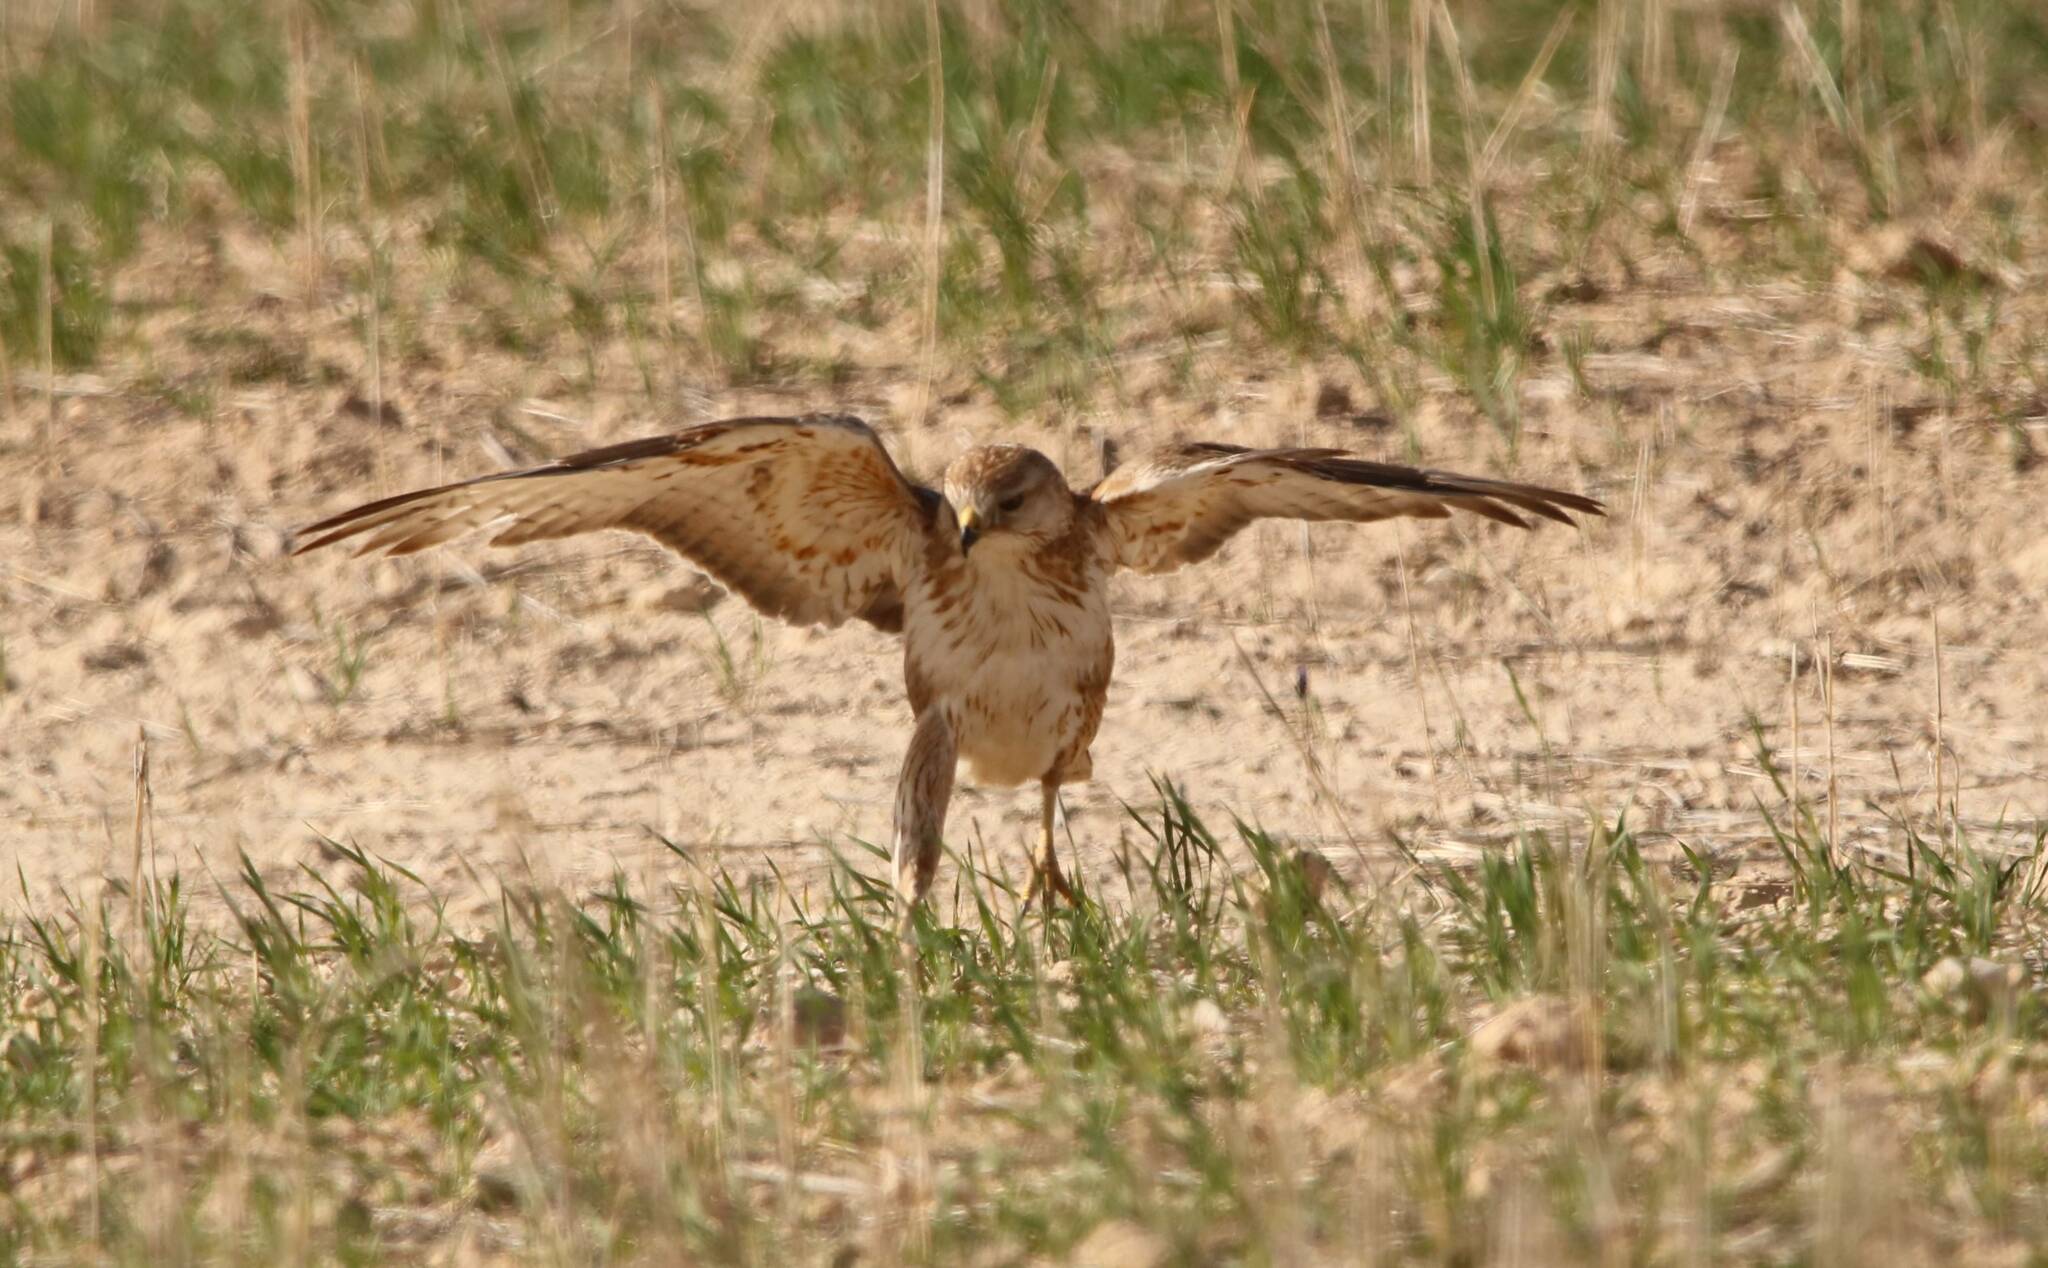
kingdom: Animalia
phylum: Chordata
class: Aves
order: Accipitriformes
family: Accipitridae
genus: Buteo
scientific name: Buteo rufinus
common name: Long-legged buzzard
